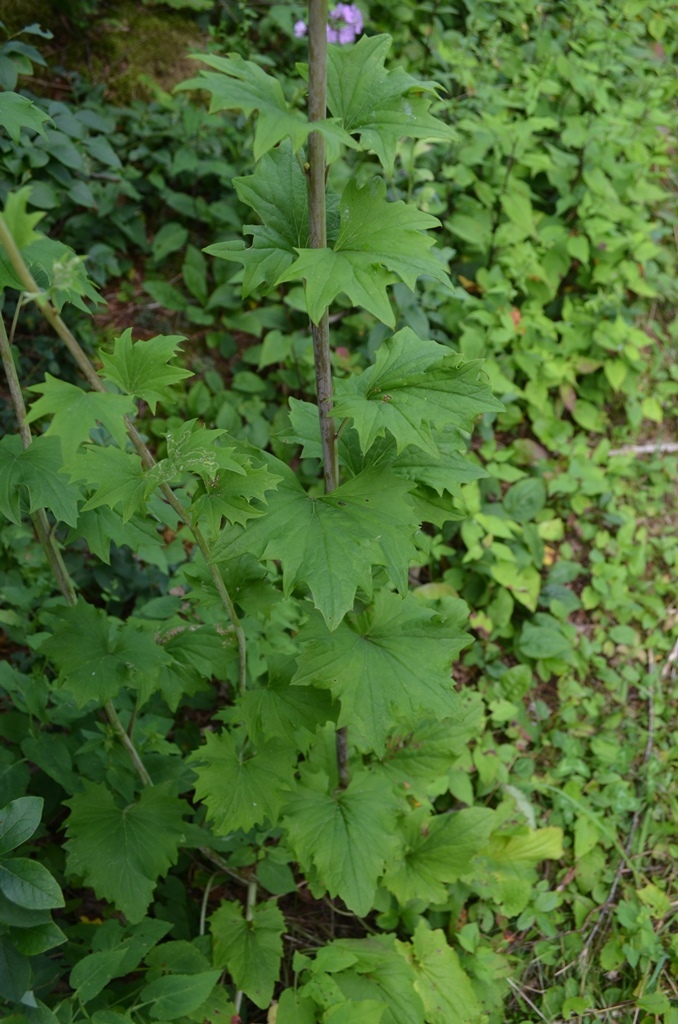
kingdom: Plantae
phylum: Tracheophyta
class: Magnoliopsida
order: Asterales
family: Asteraceae
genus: Arnoglossum
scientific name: Arnoglossum atriplicifolium
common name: Pale indian-plantain
